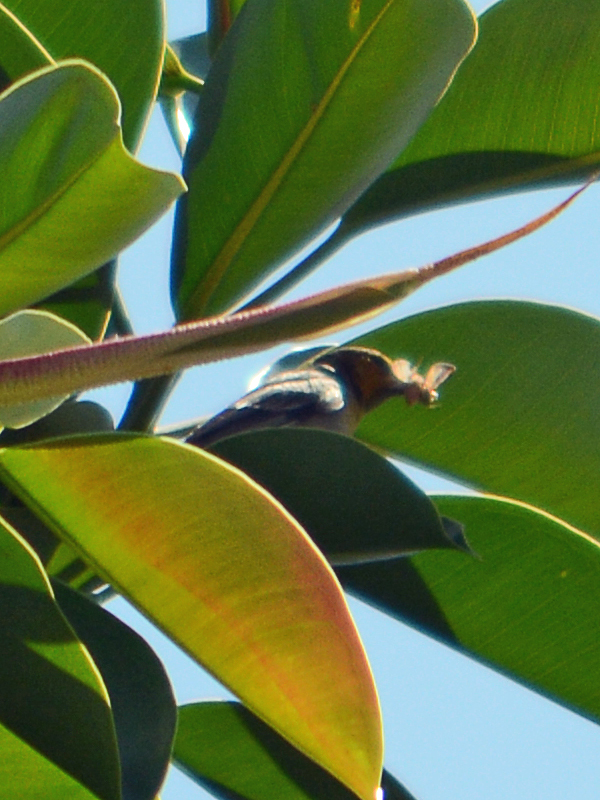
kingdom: Animalia
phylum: Chordata
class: Aves
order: Passeriformes
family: Icteridae
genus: Icterus
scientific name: Icterus abeillei
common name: Black-backed oriole
